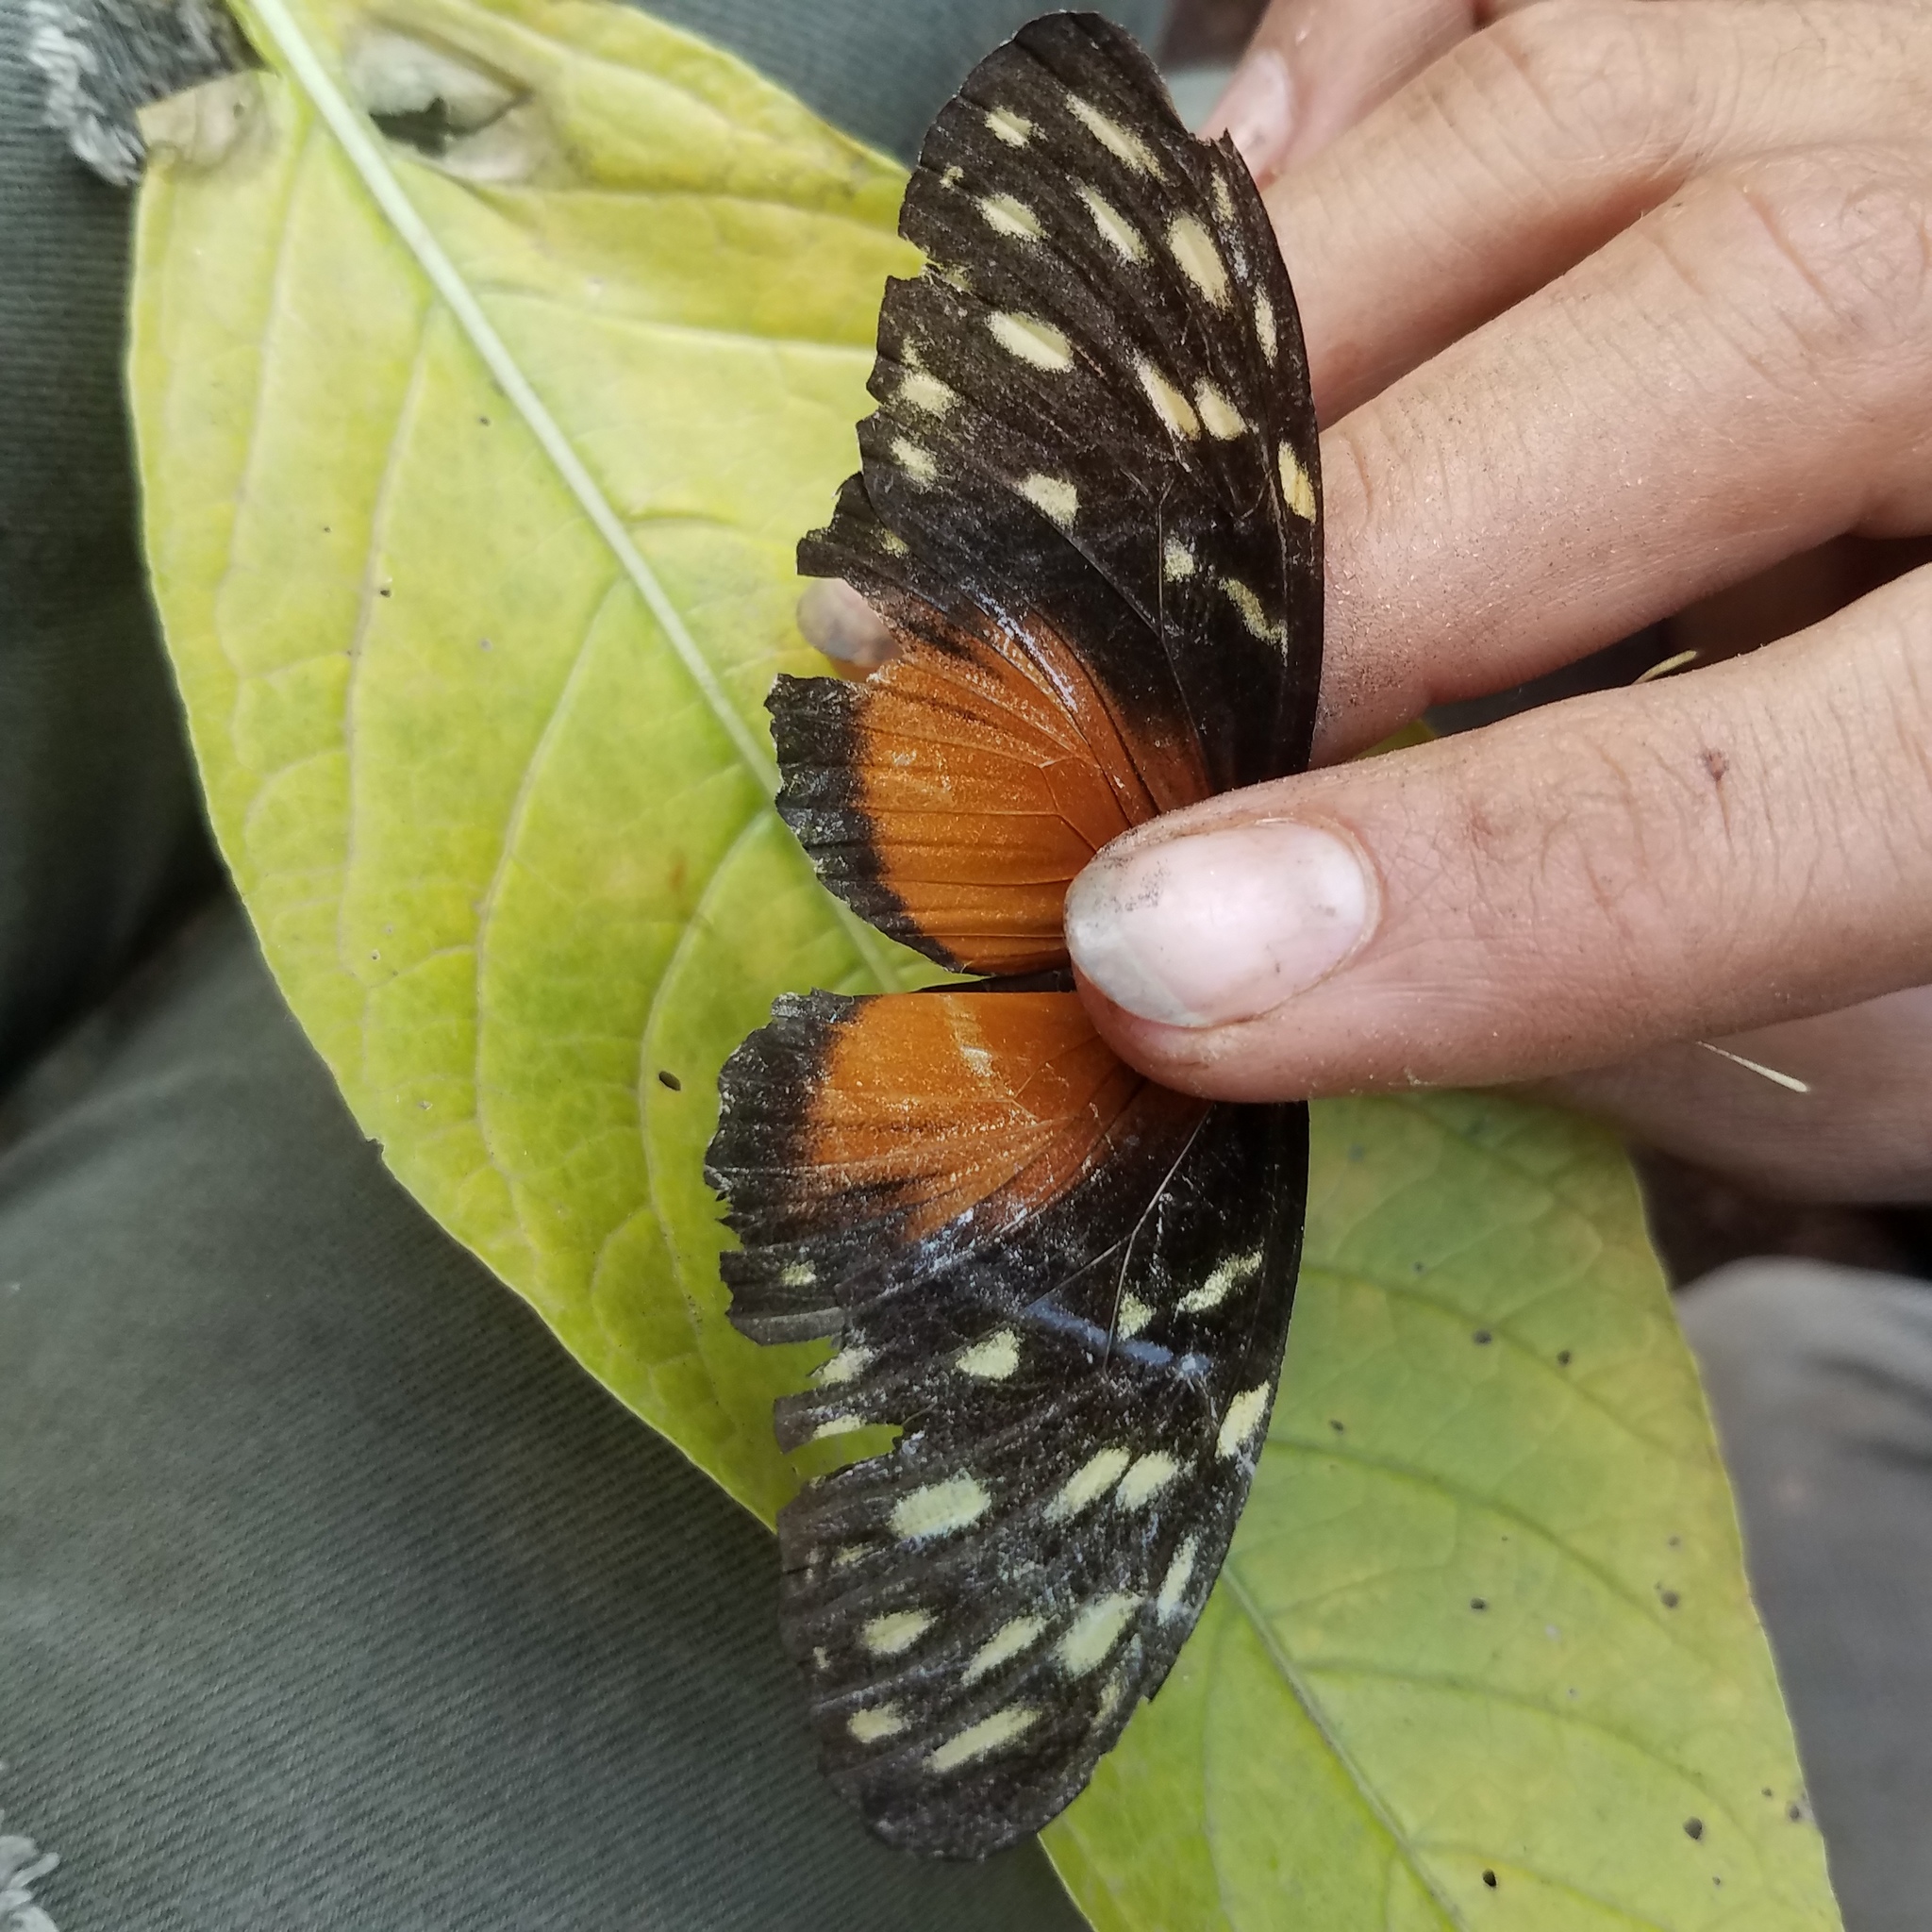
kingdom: Animalia
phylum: Arthropoda
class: Insecta
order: Lepidoptera
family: Nymphalidae
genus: Heliconius
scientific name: Heliconius hecale
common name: Tiger longwing
